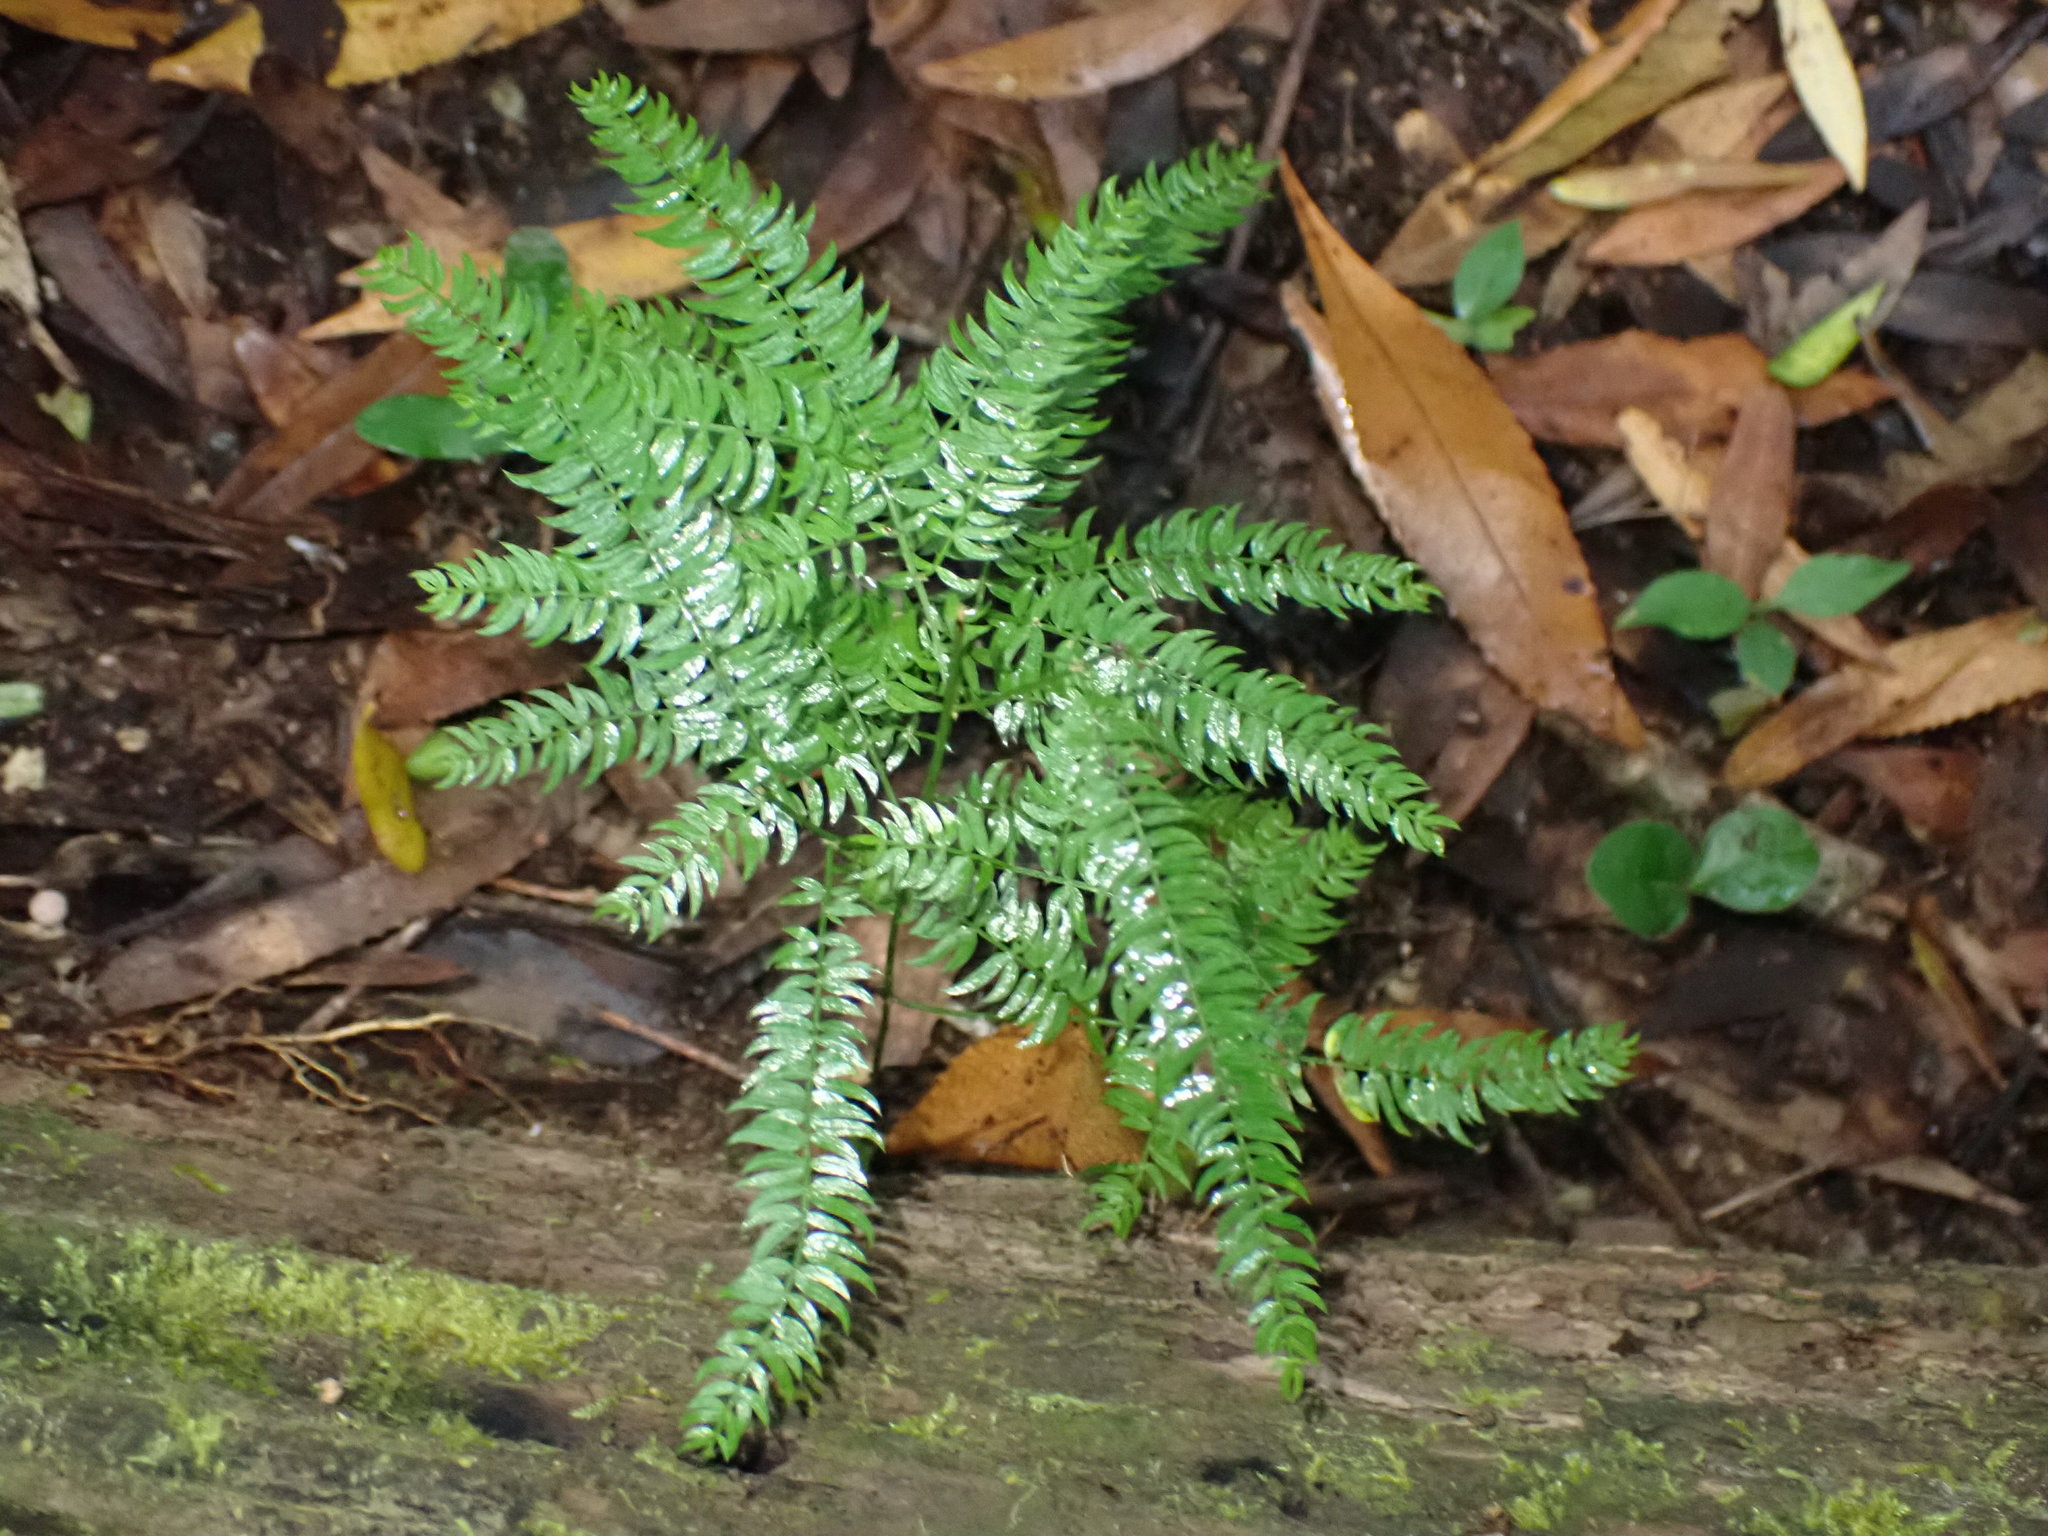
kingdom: Plantae
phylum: Tracheophyta
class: Liliopsida
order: Asparagales
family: Asparagaceae
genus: Asparagus
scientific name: Asparagus scandens
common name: Asparagus-fern
